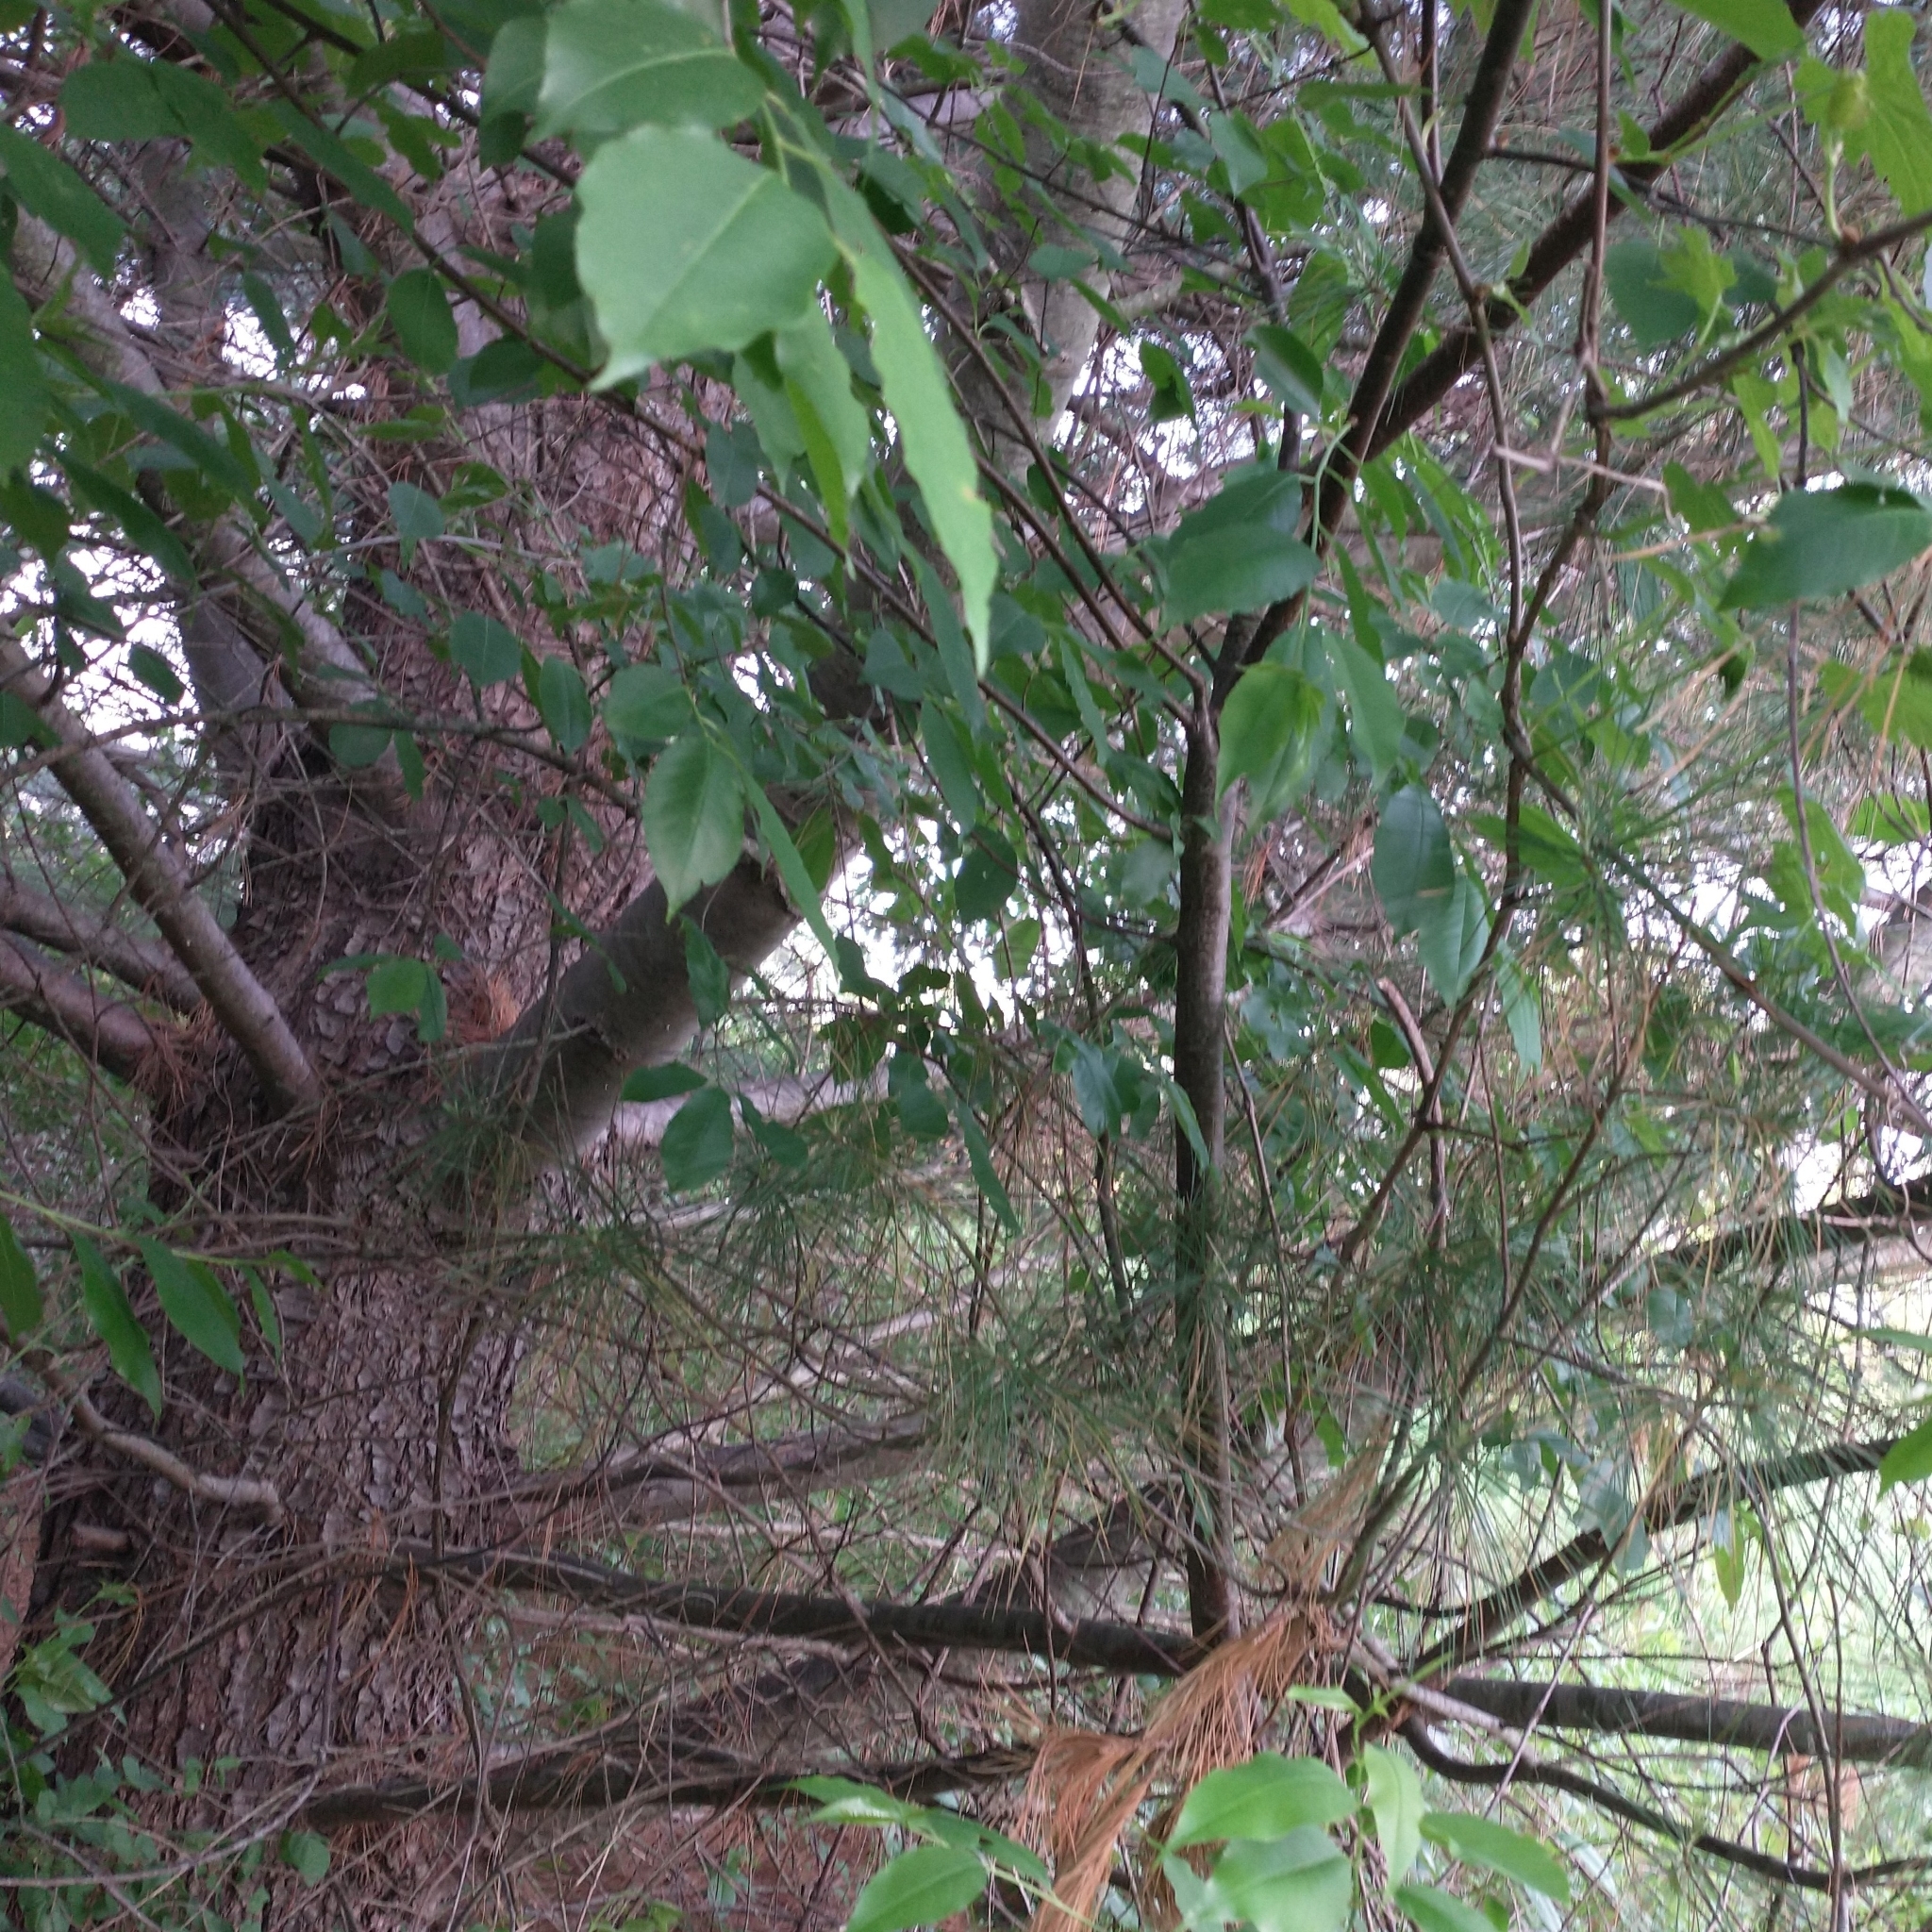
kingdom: Plantae
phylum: Tracheophyta
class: Pinopsida
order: Pinales
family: Pinaceae
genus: Pinus
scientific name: Pinus strobus
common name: Weymouth pine
